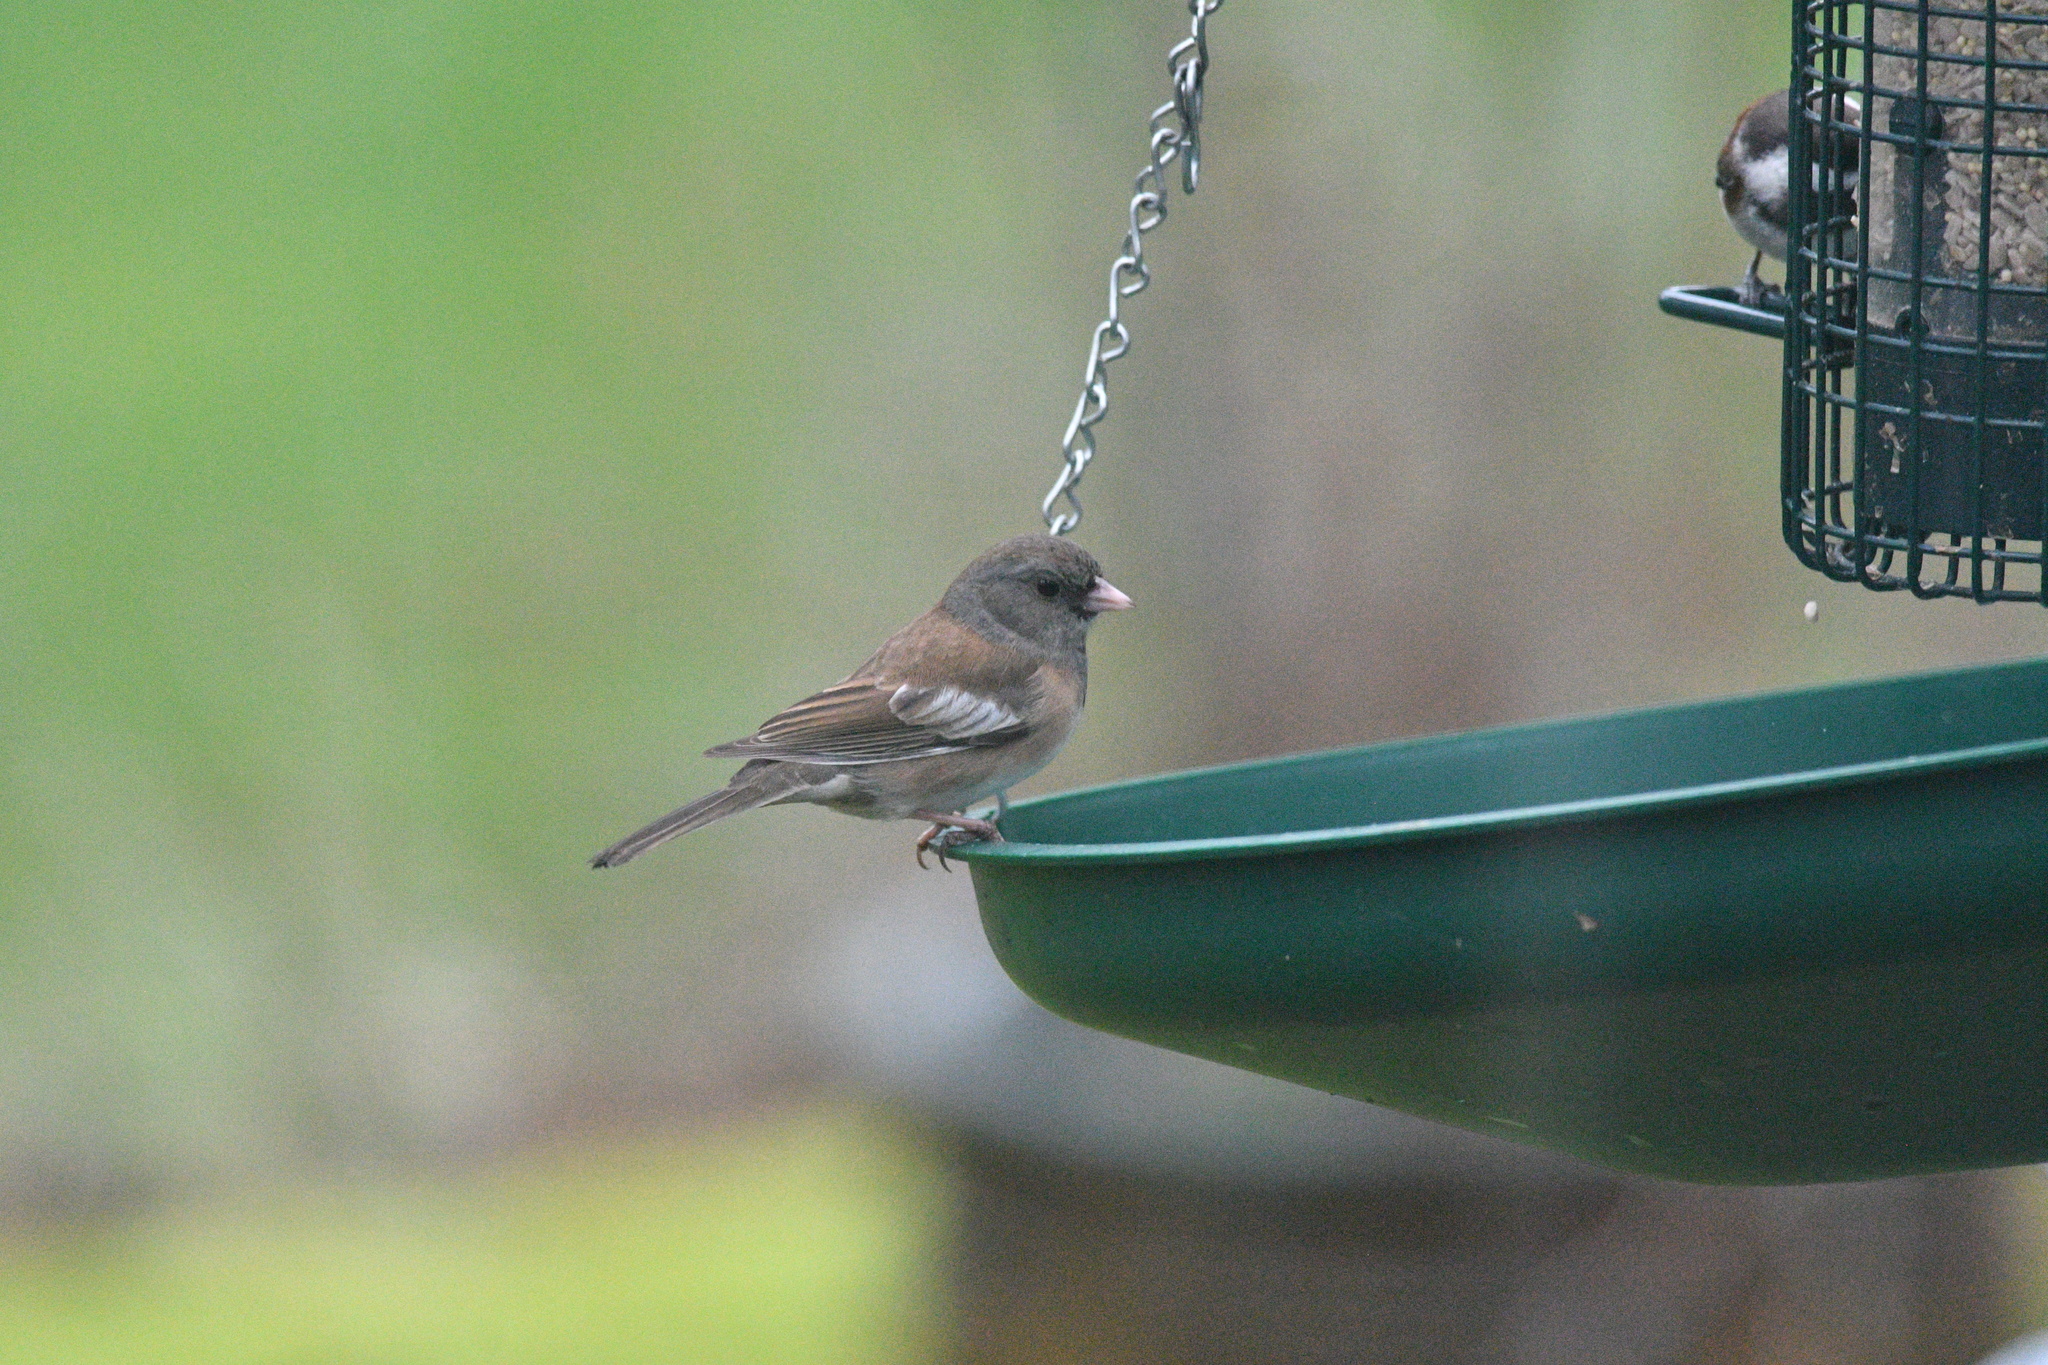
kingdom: Animalia
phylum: Chordata
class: Aves
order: Passeriformes
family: Passerellidae
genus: Junco
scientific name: Junco hyemalis
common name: Dark-eyed junco
